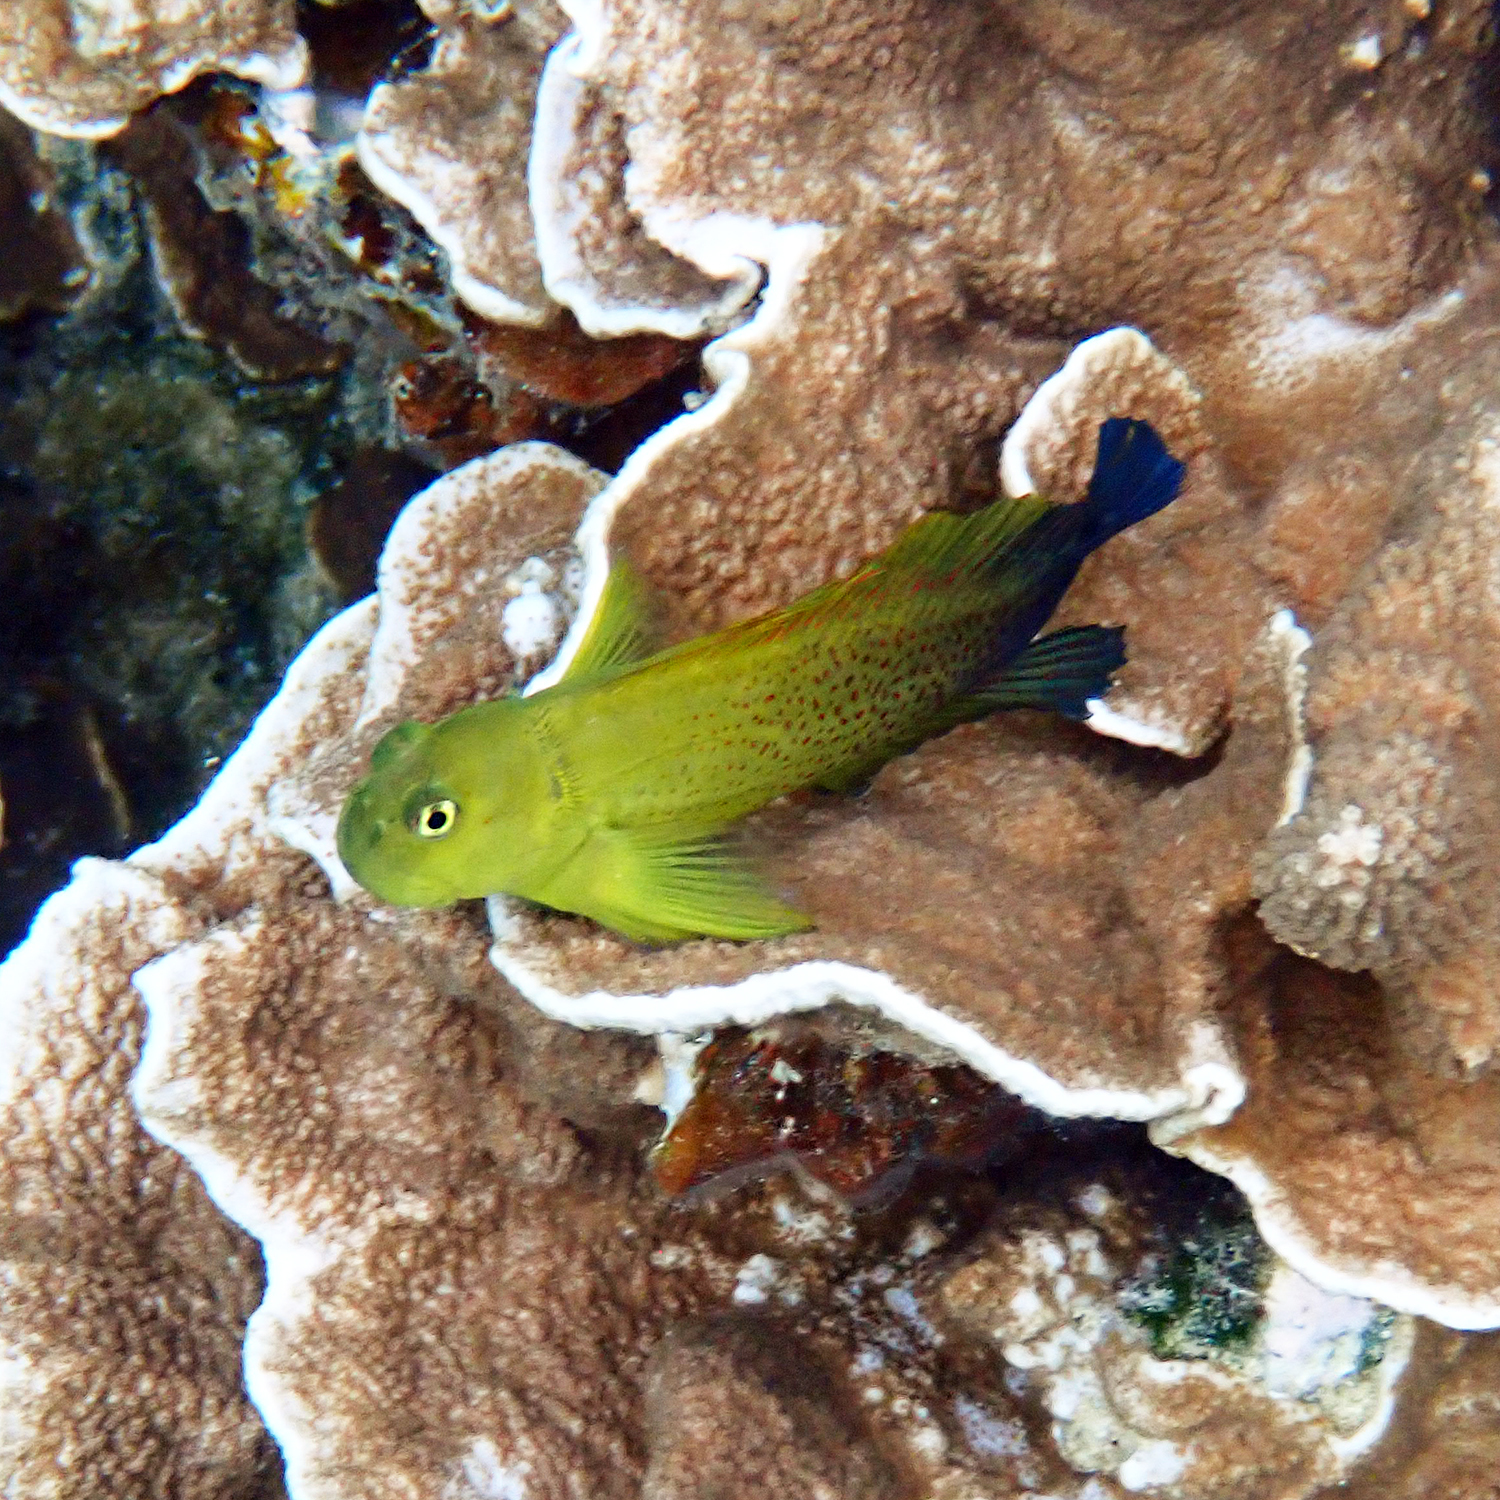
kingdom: Animalia
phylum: Chordata
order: Perciformes
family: Blenniidae
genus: Cirripectes
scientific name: Cirripectes chelomatus
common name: Lady musgrave blenny
